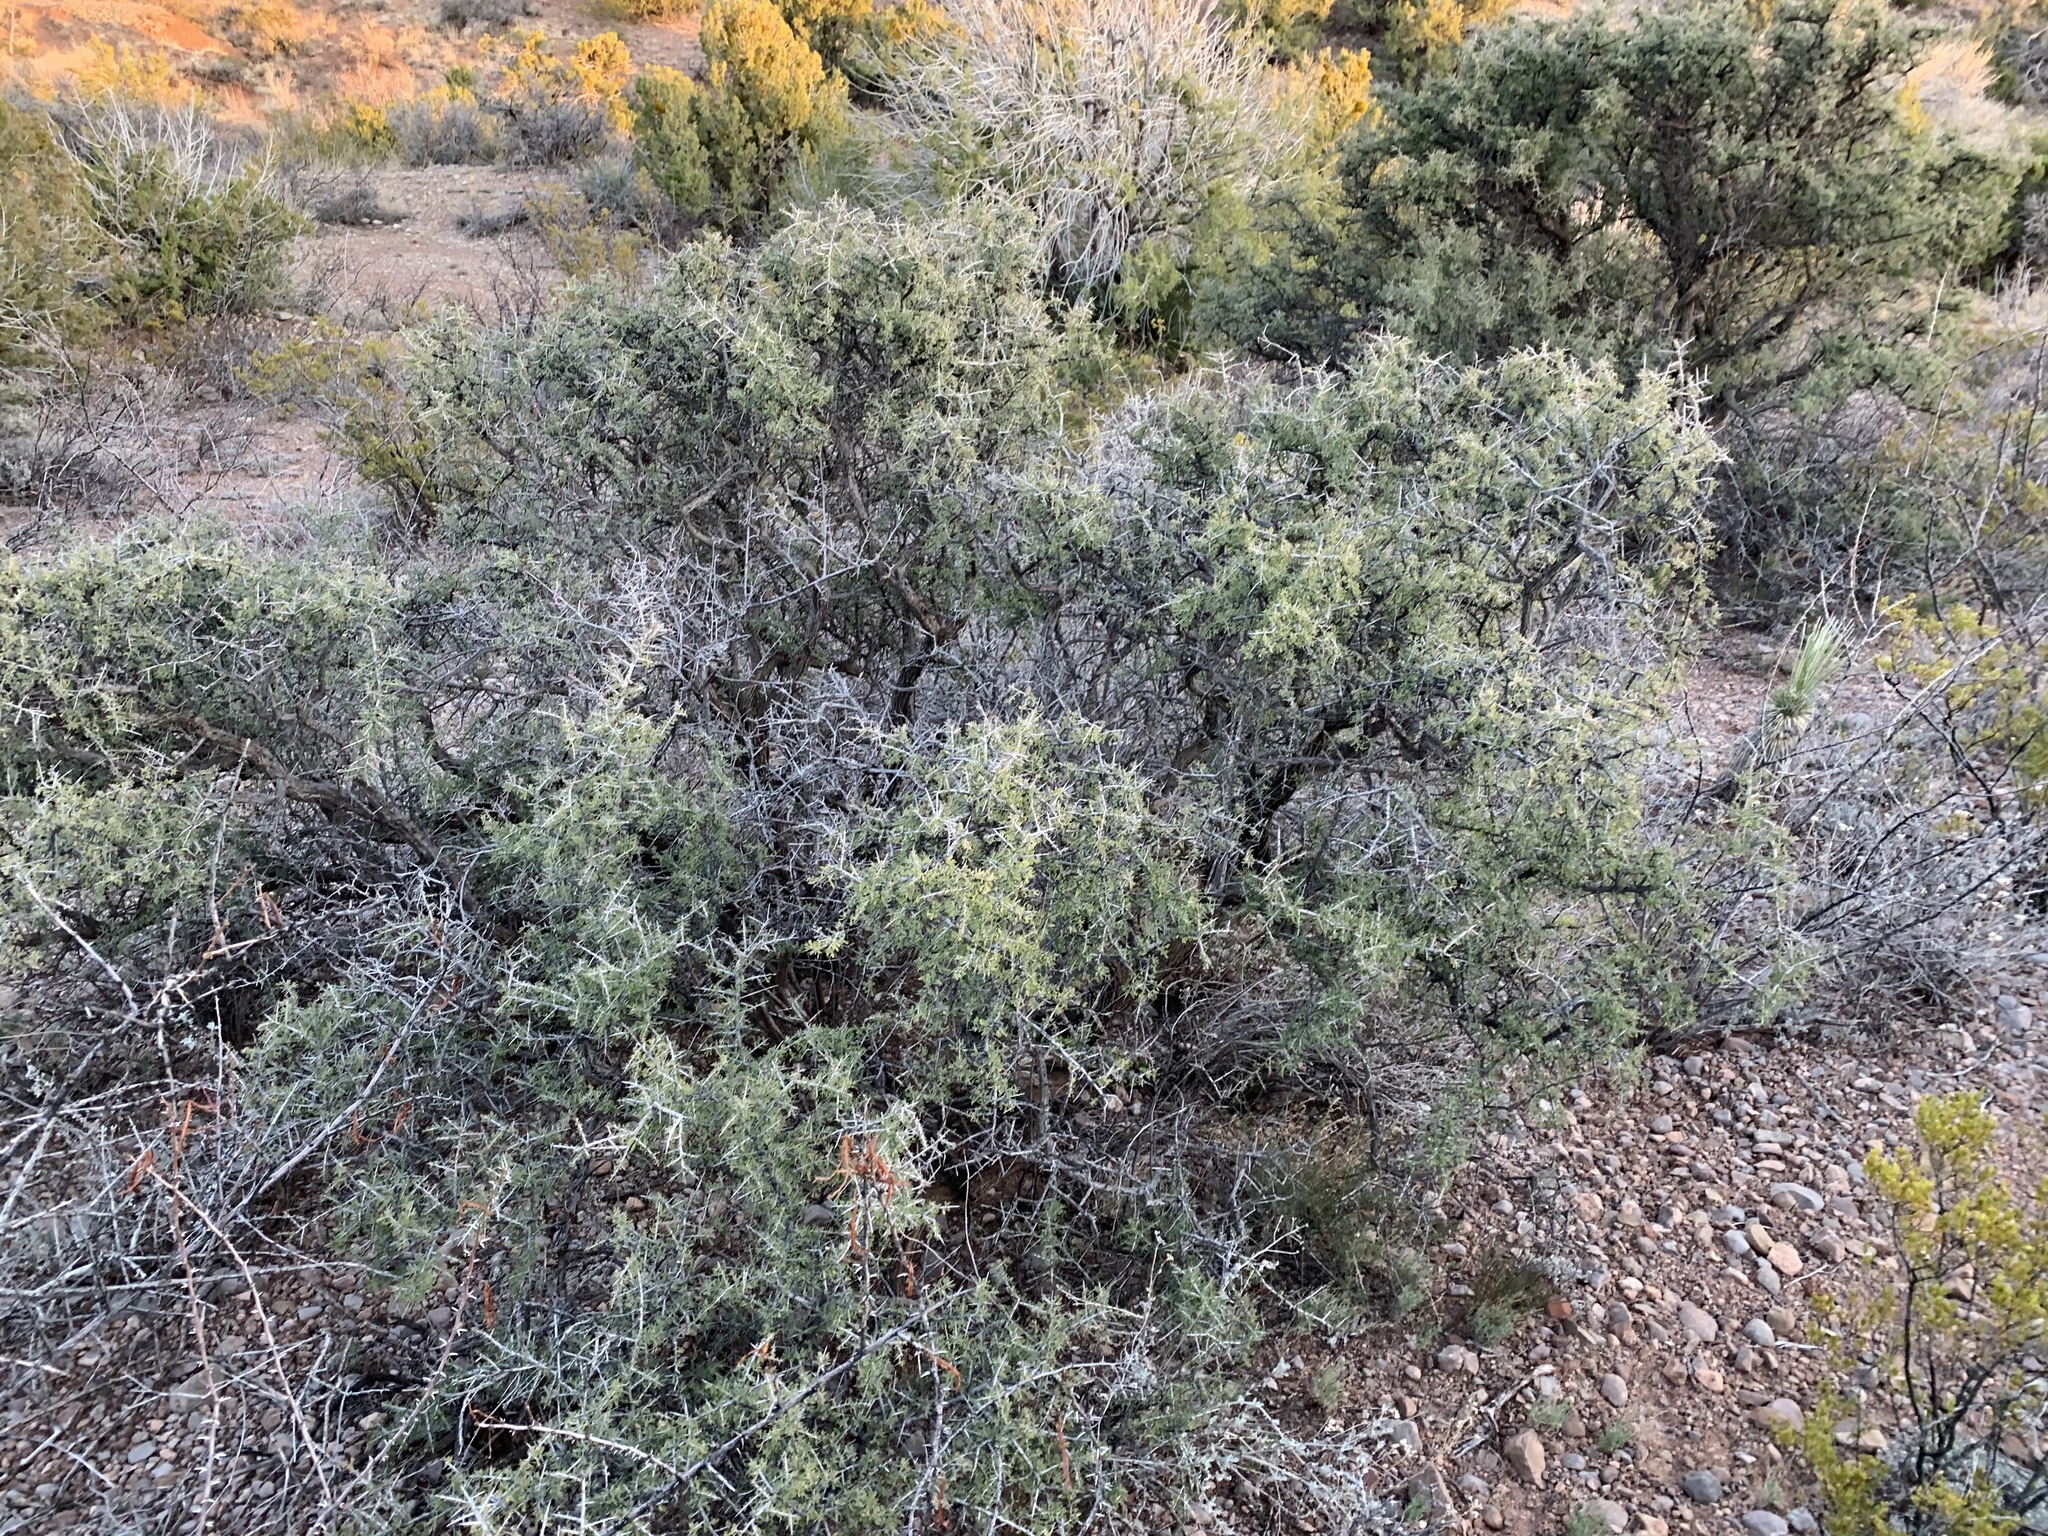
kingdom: Plantae
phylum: Tracheophyta
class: Magnoliopsida
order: Rosales
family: Rhamnaceae
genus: Condalia
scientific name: Condalia warnockii
